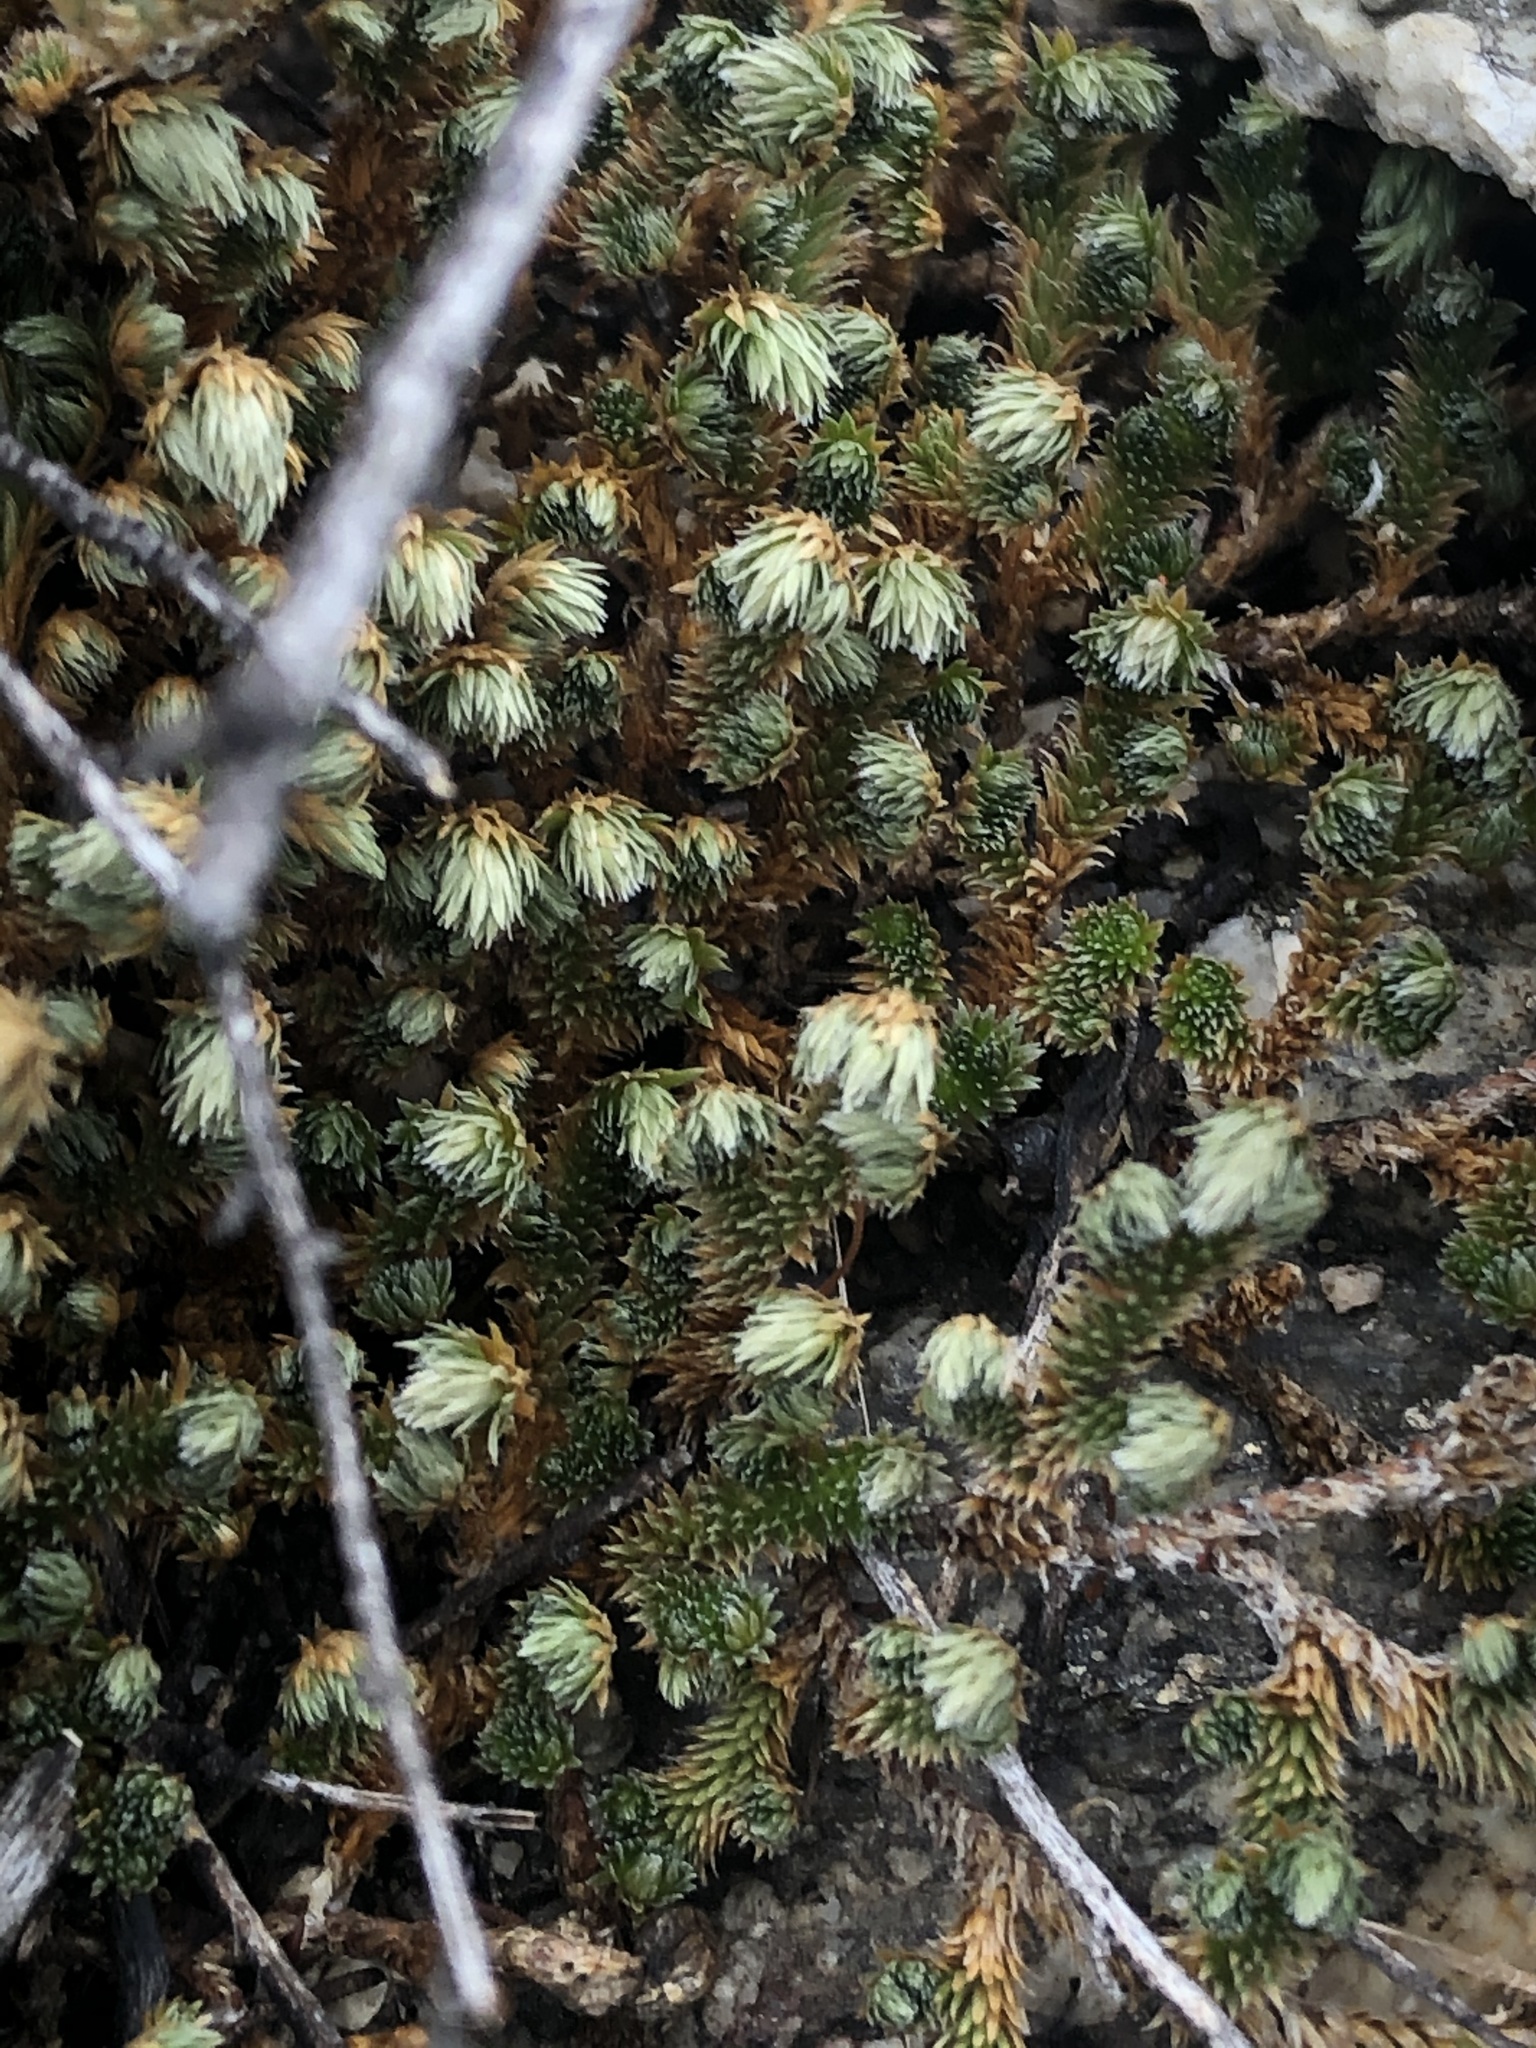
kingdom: Plantae
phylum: Tracheophyta
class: Lycopodiopsida
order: Selaginellales
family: Selaginellaceae
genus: Selaginella
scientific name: Selaginella arizonica
